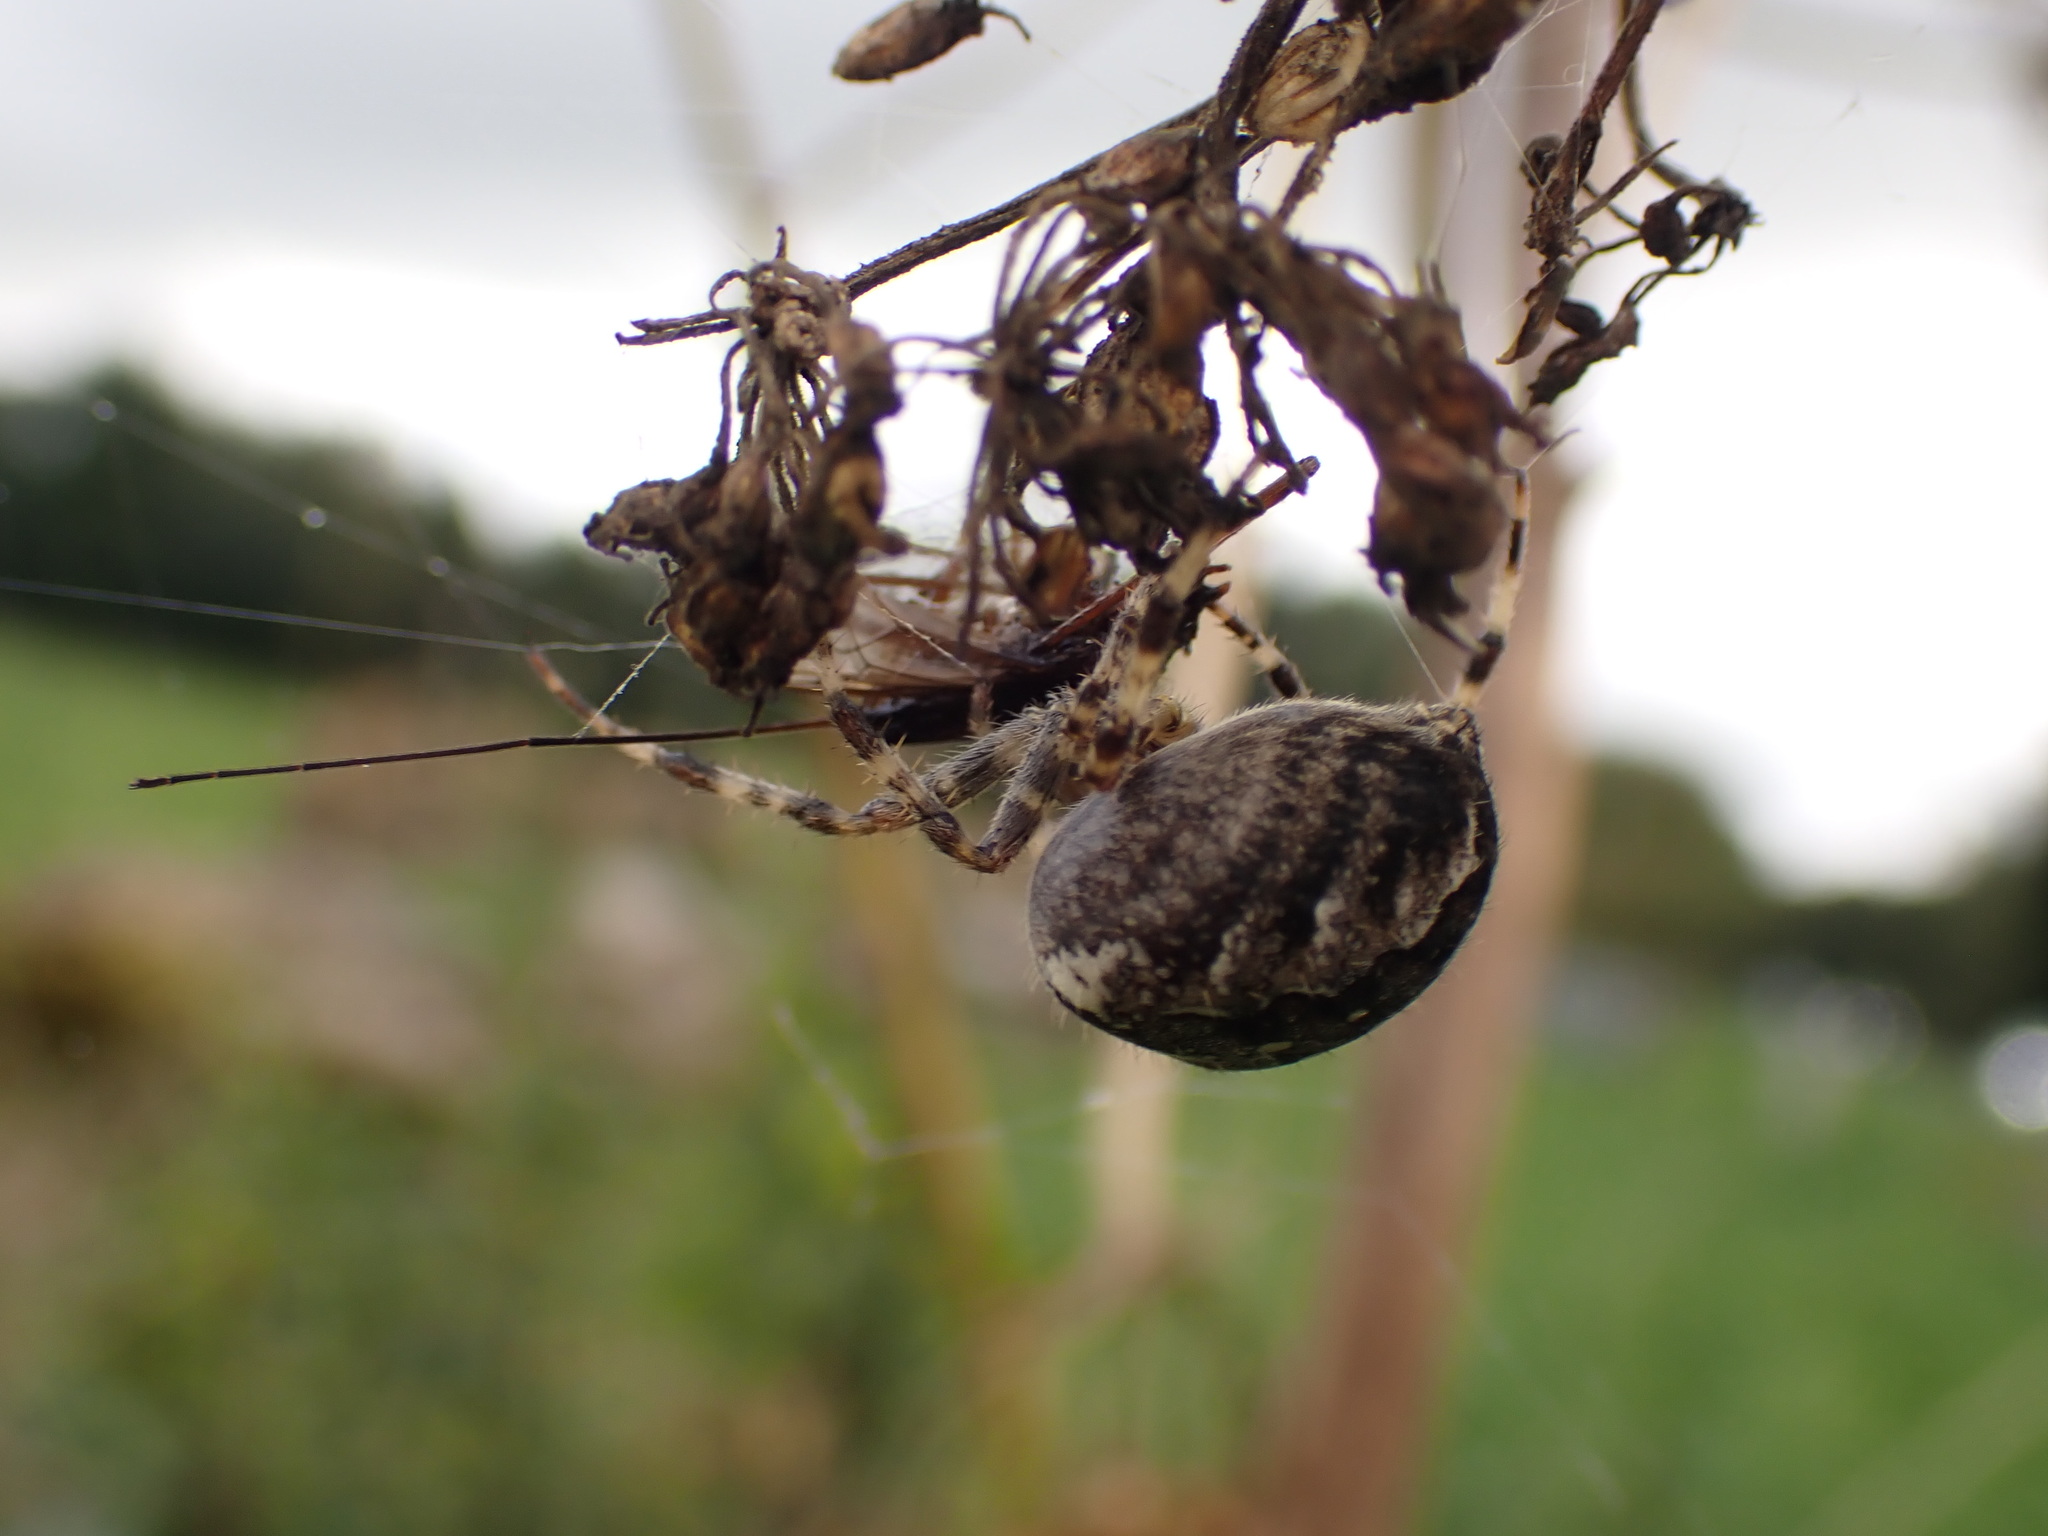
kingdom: Animalia
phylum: Arthropoda
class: Arachnida
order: Araneae
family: Araneidae
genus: Araneus
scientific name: Araneus diadematus
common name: Cross orbweaver
